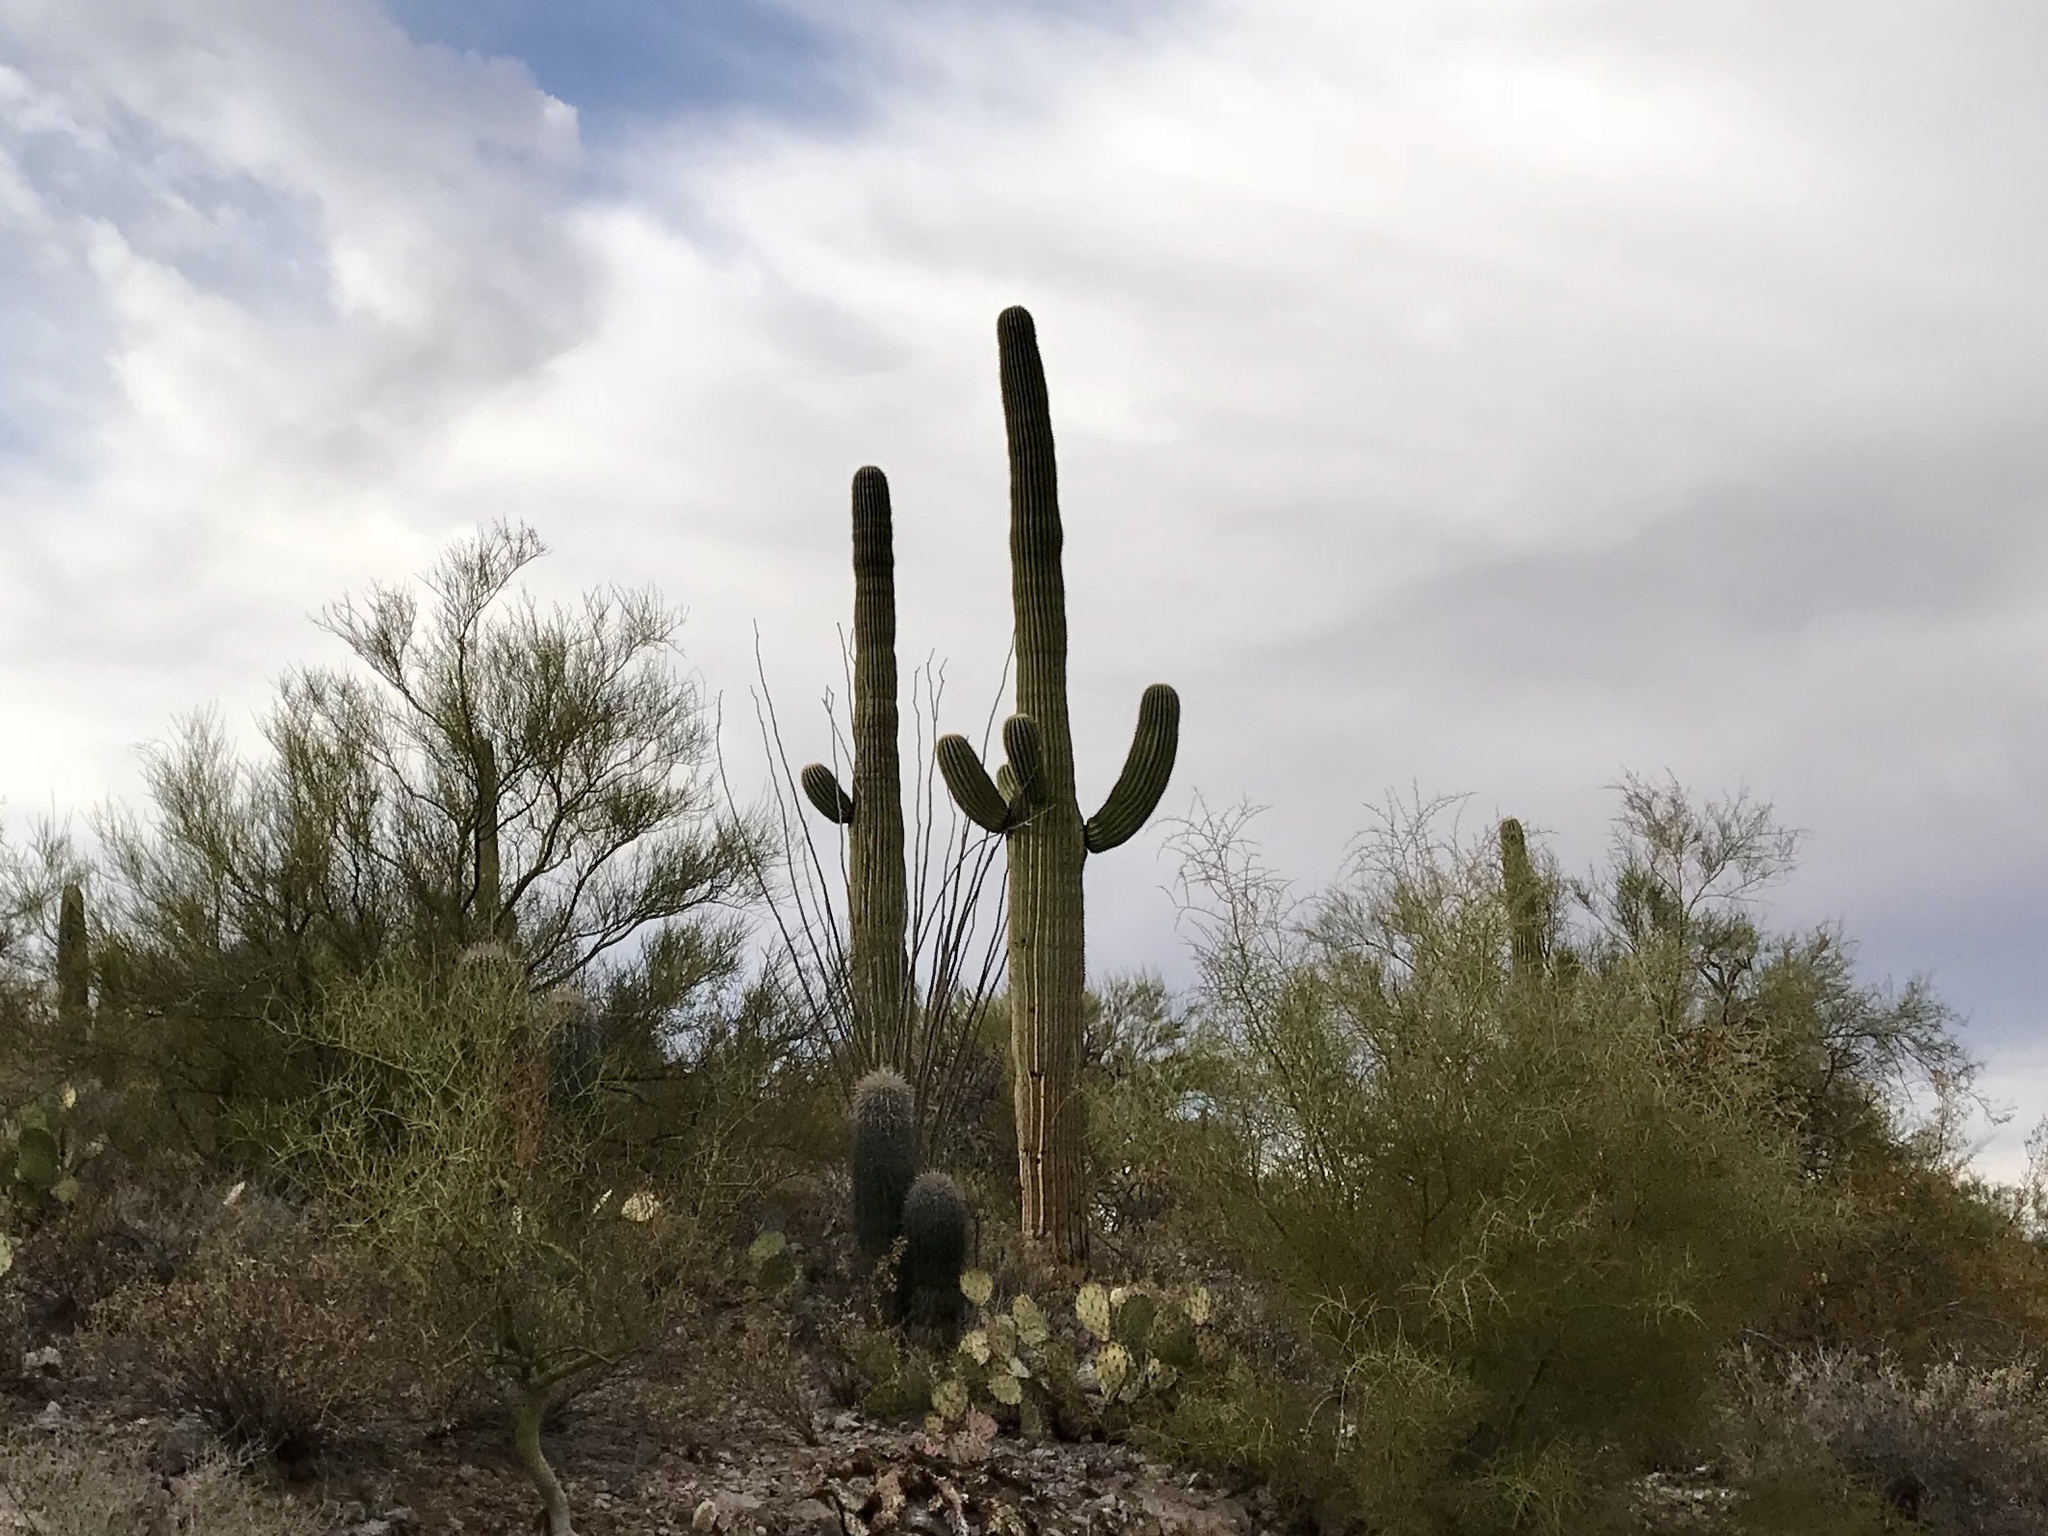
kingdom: Plantae
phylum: Tracheophyta
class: Magnoliopsida
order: Caryophyllales
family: Cactaceae
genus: Carnegiea
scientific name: Carnegiea gigantea
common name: Saguaro
